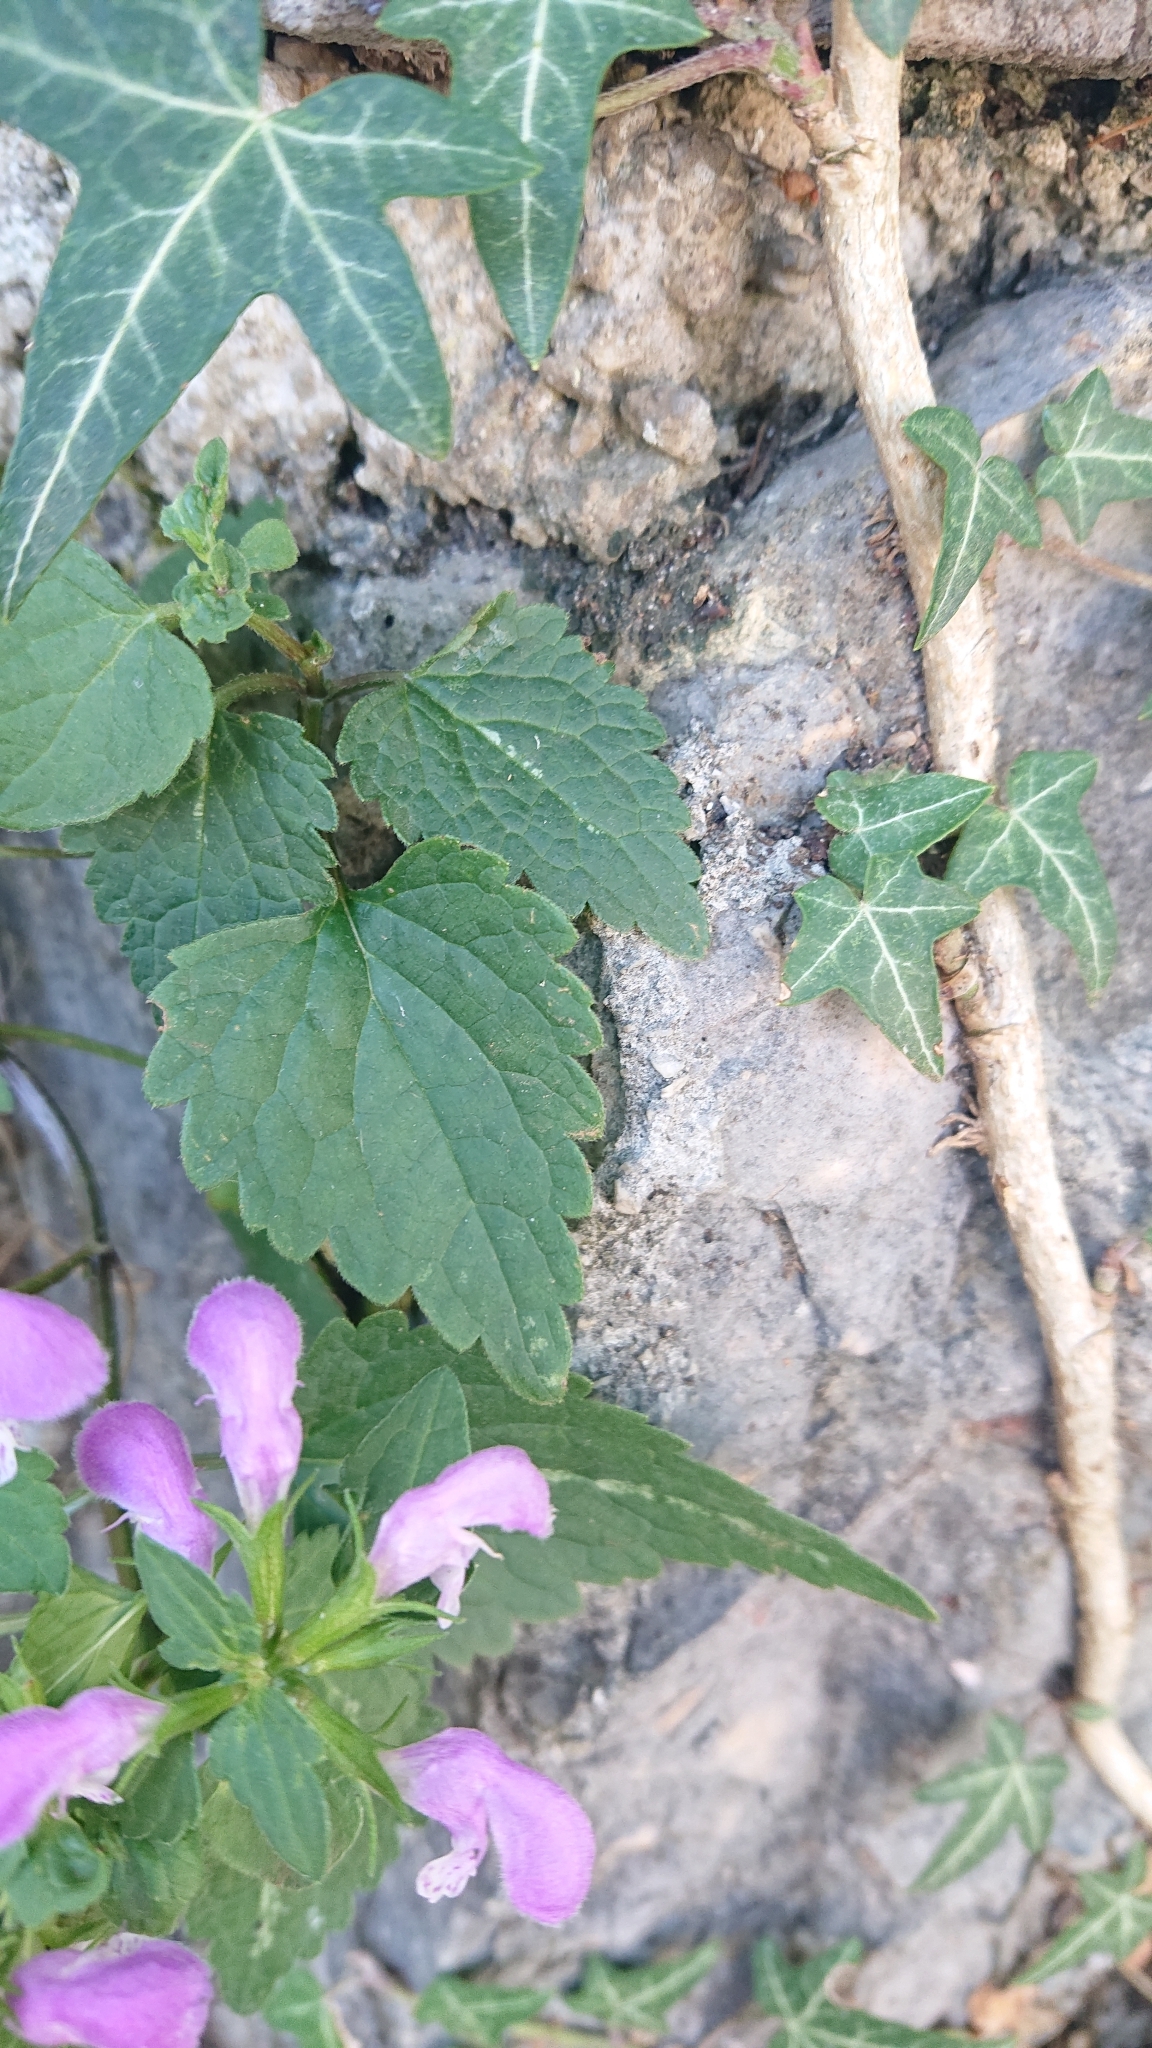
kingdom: Plantae
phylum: Tracheophyta
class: Magnoliopsida
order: Lamiales
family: Lamiaceae
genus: Lamium
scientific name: Lamium maculatum
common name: Spotted dead-nettle
